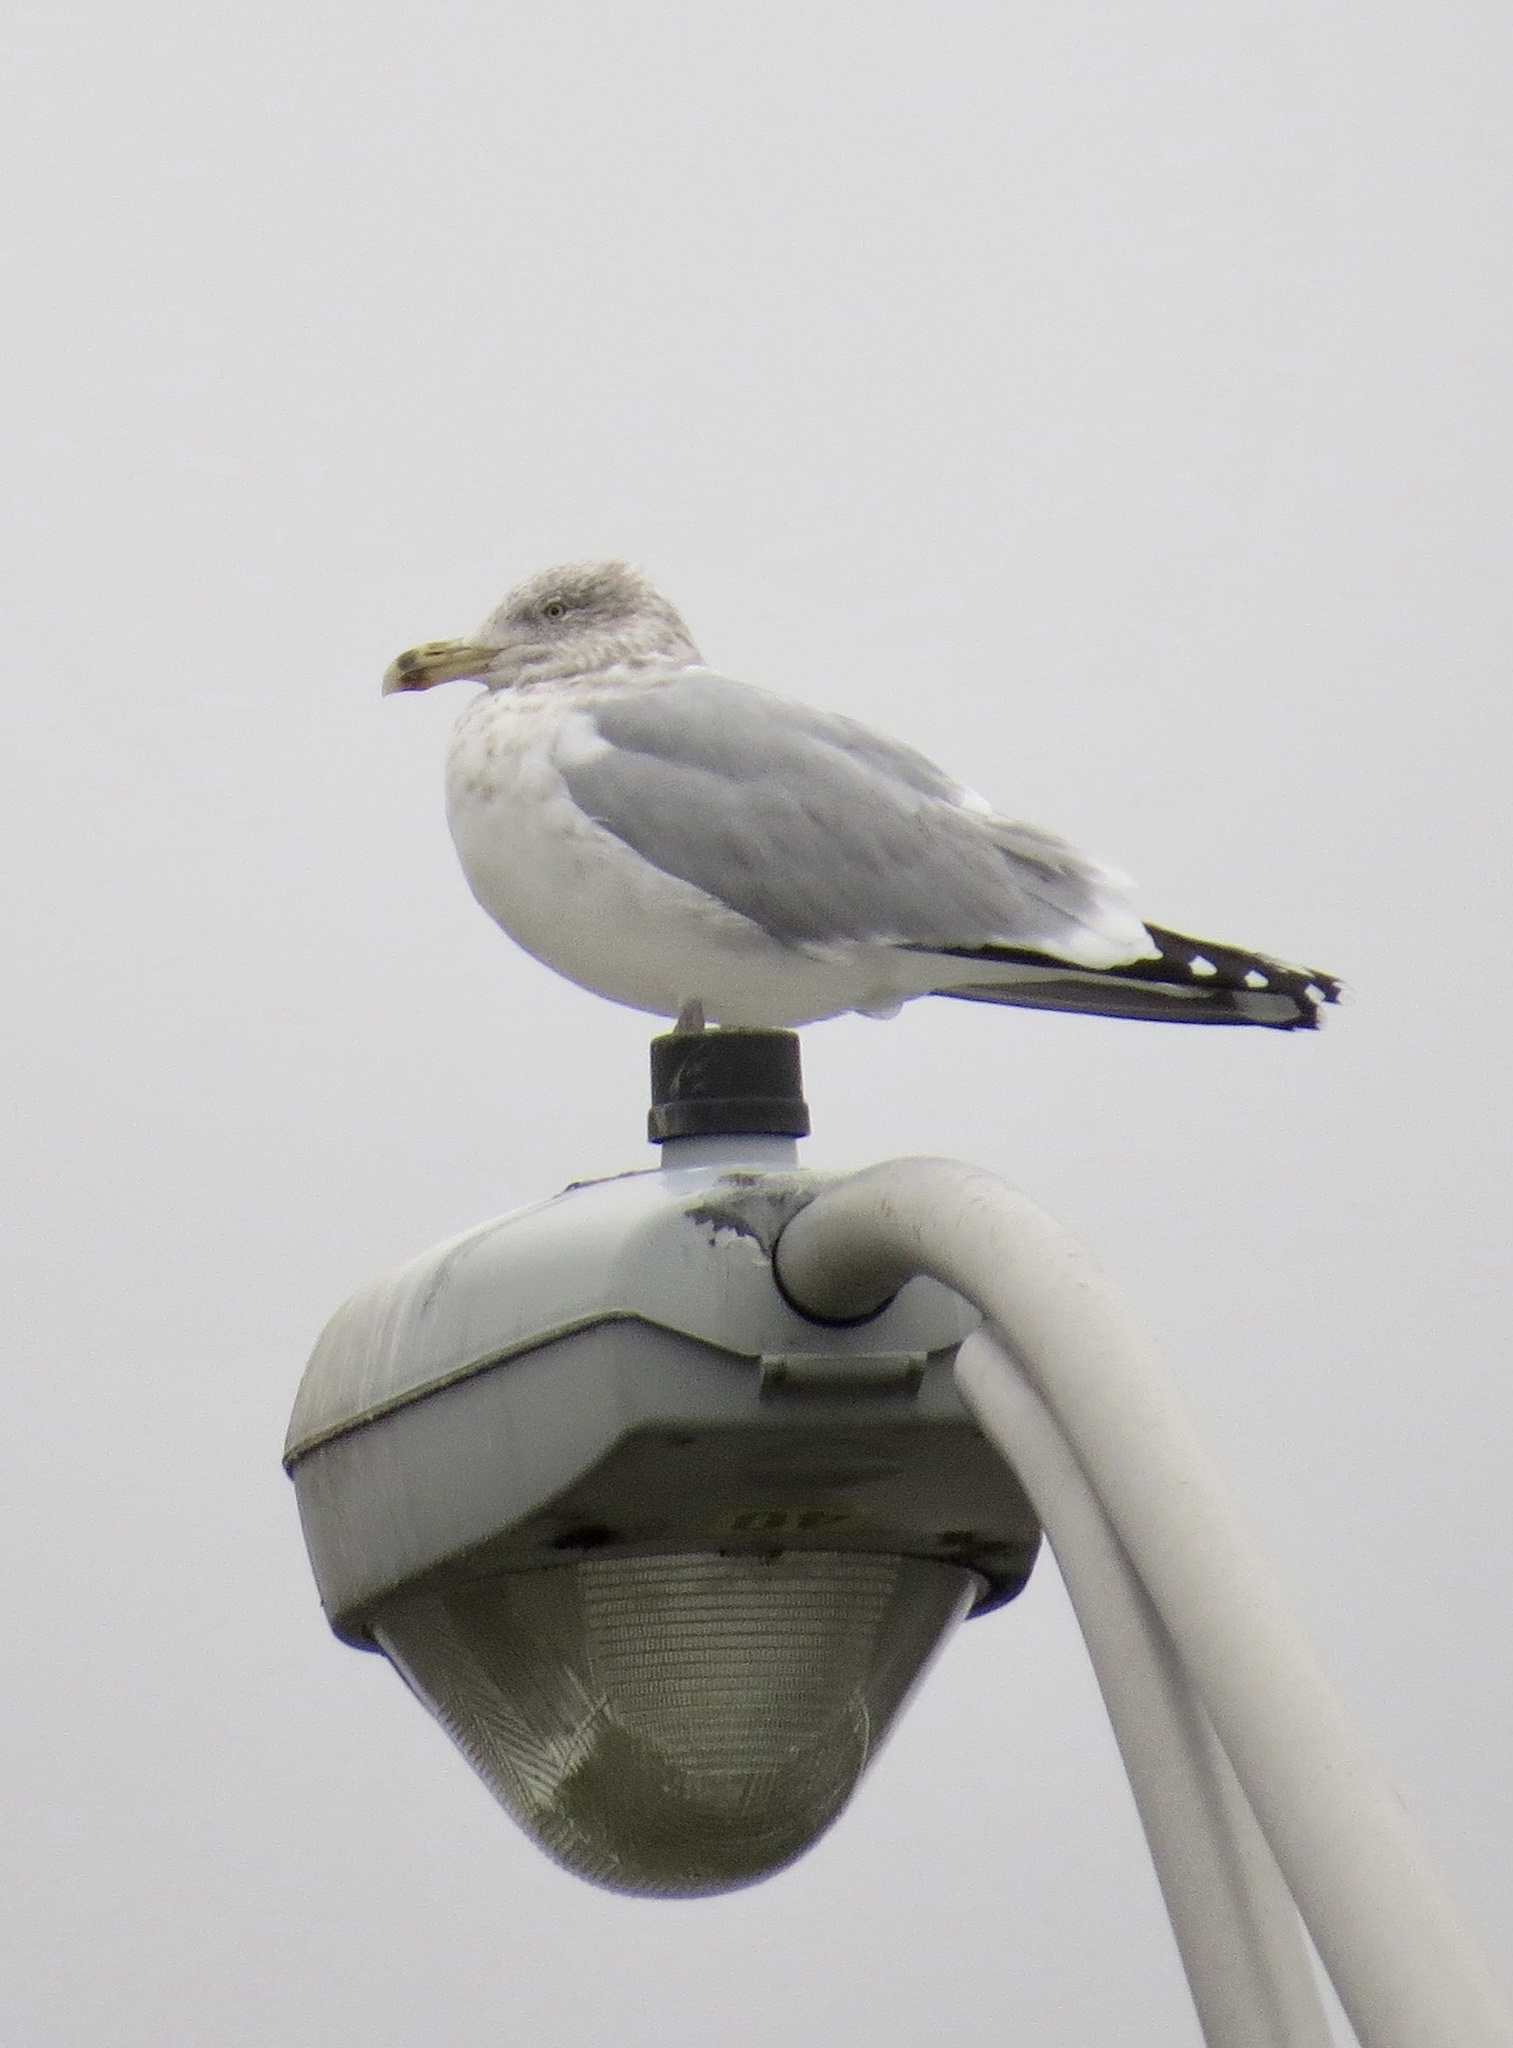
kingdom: Animalia
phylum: Chordata
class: Aves
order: Charadriiformes
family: Laridae
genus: Larus
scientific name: Larus argentatus
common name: Herring gull
